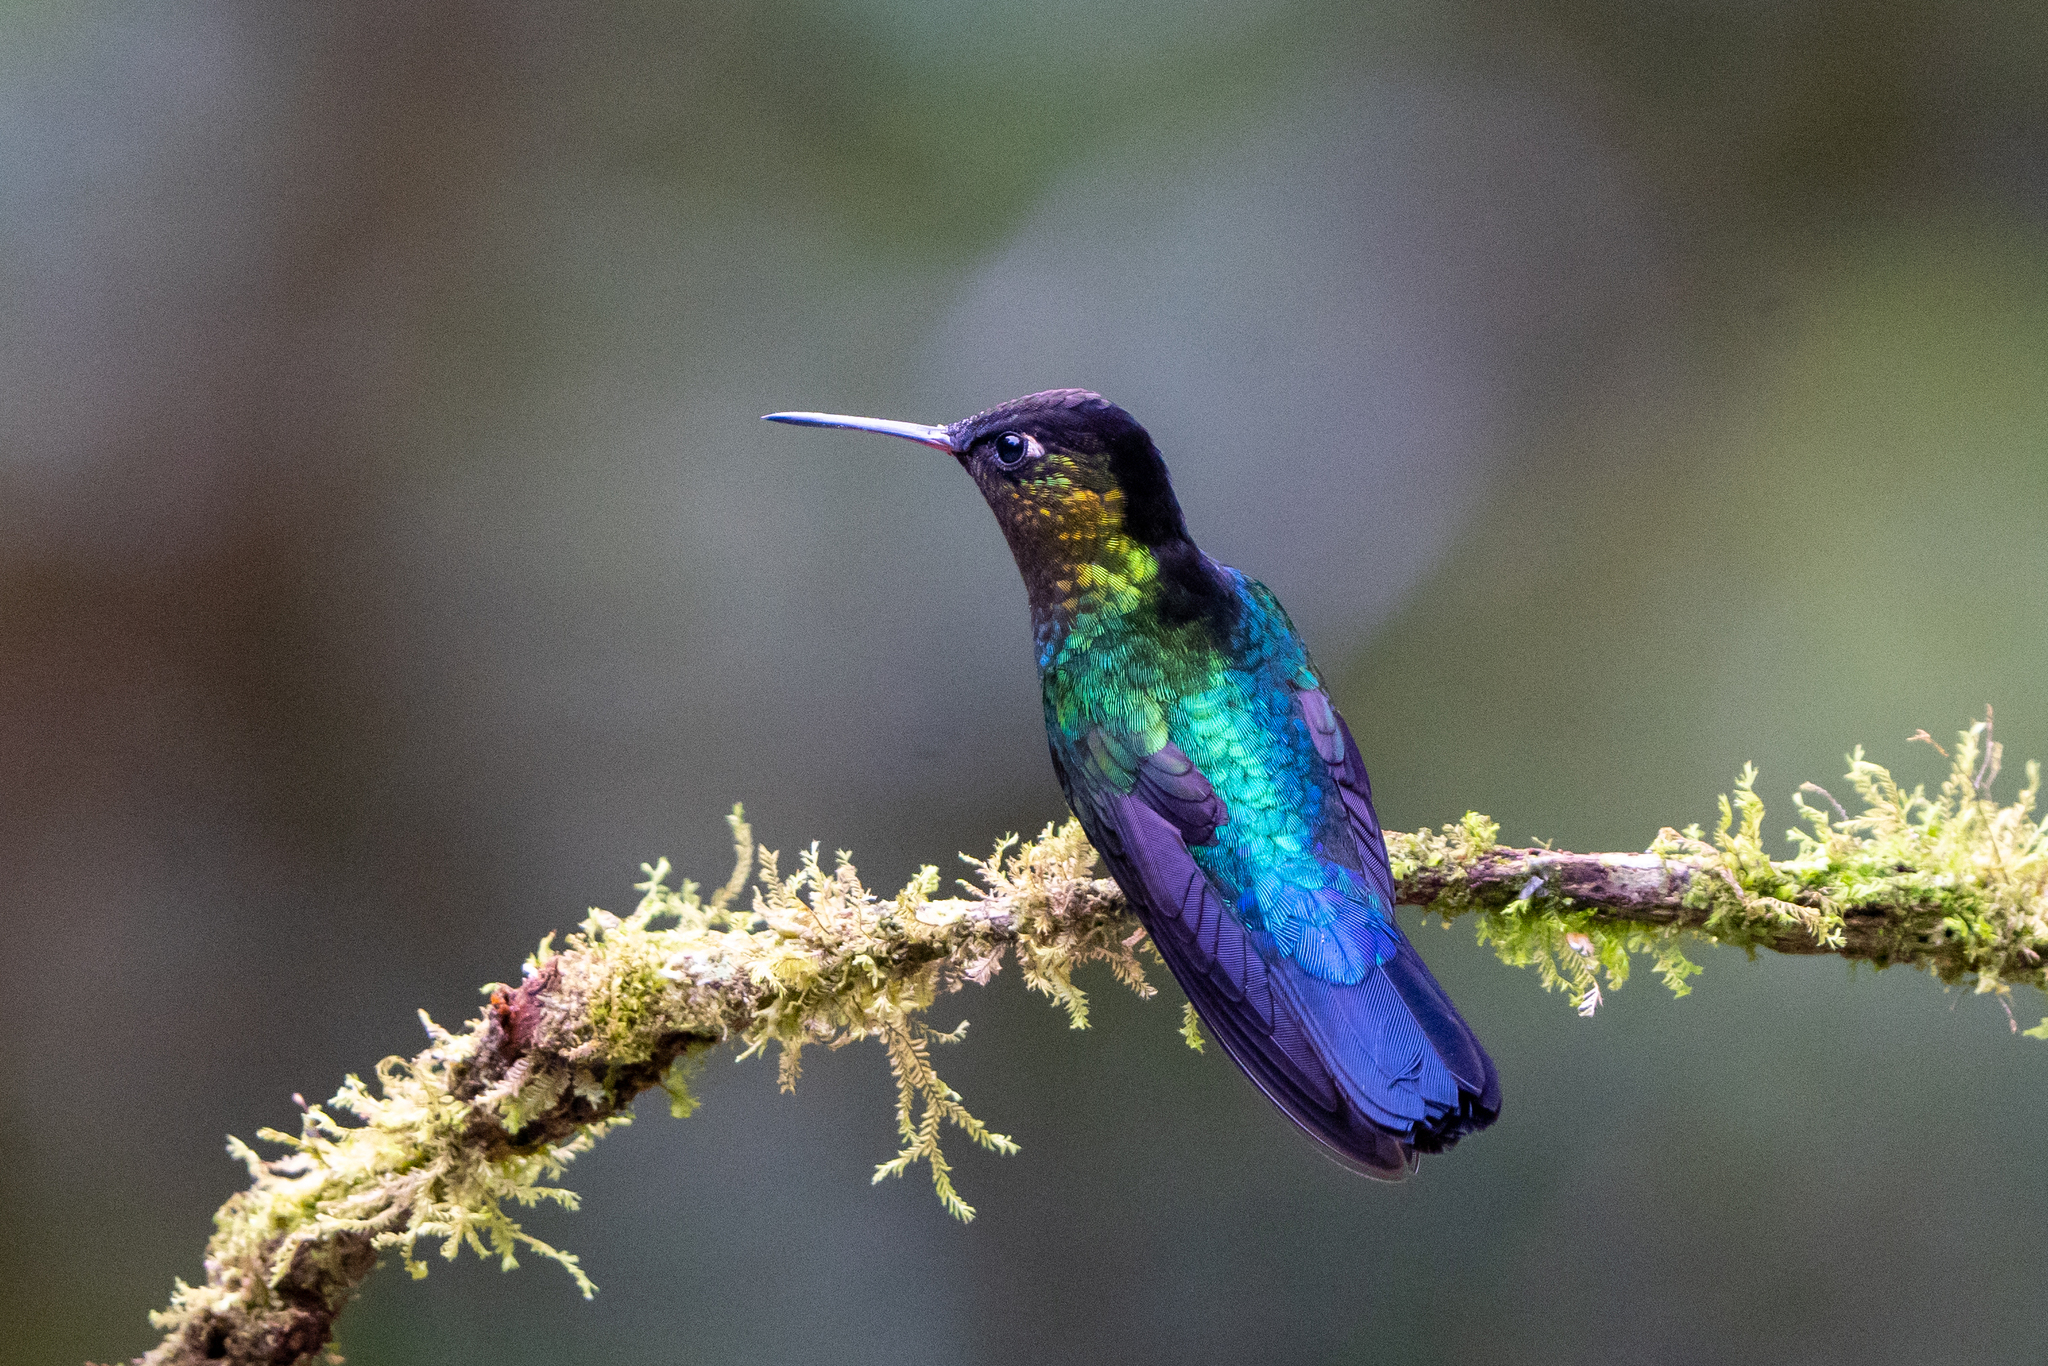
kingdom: Animalia
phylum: Chordata
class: Aves
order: Apodiformes
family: Trochilidae
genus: Panterpe
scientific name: Panterpe insignis
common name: Fiery-throated hummingbird
